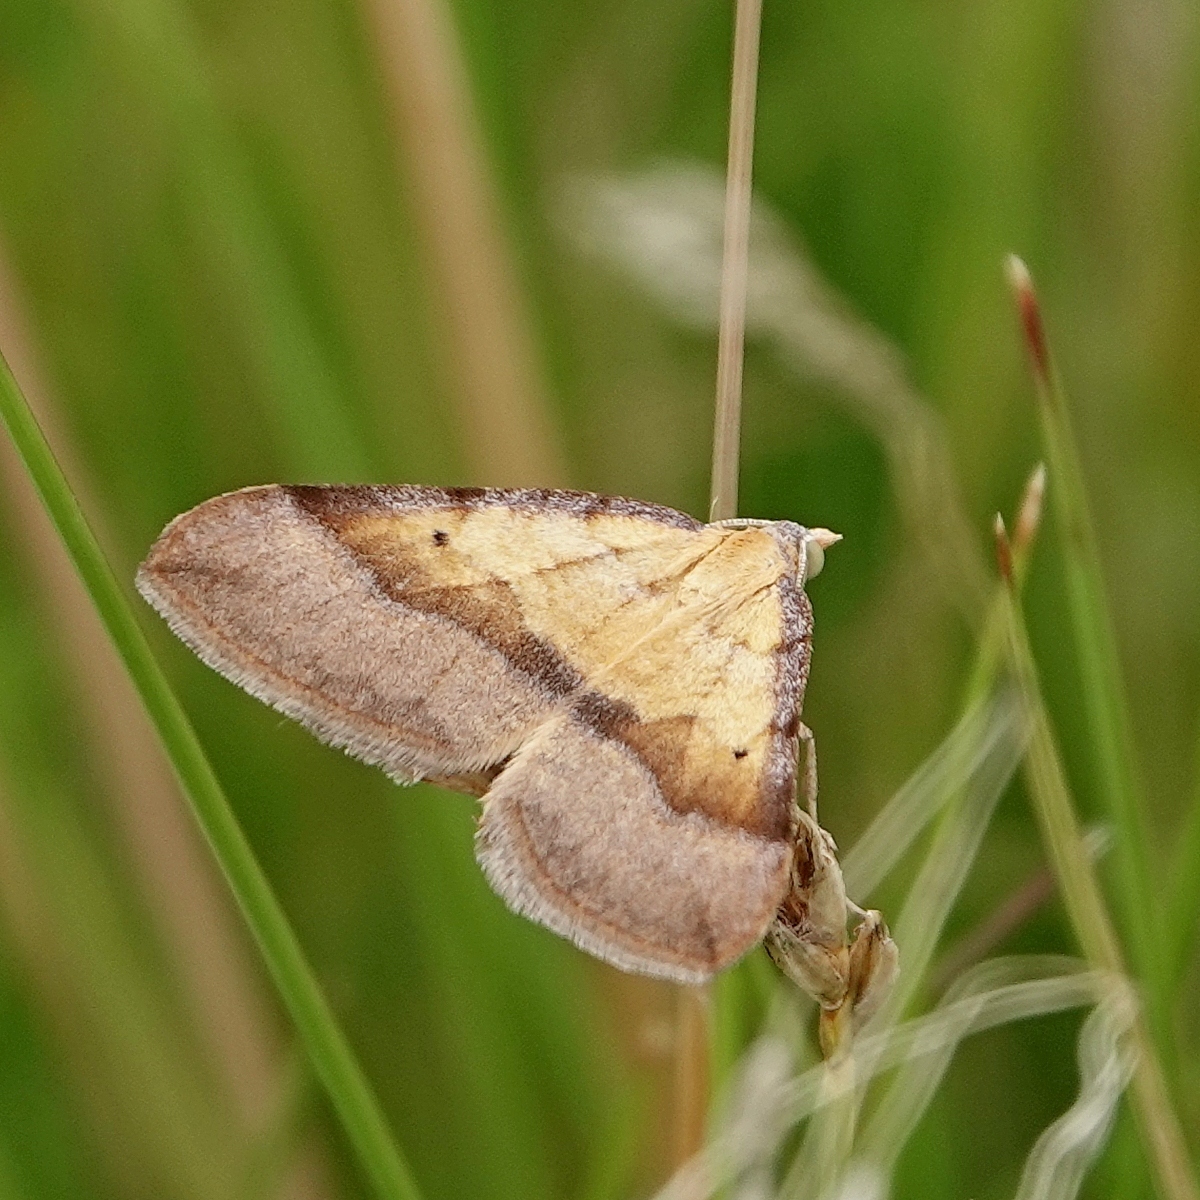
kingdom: Animalia
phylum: Arthropoda
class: Insecta
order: Lepidoptera
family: Geometridae
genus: Anachloris
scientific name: Anachloris subochraria
